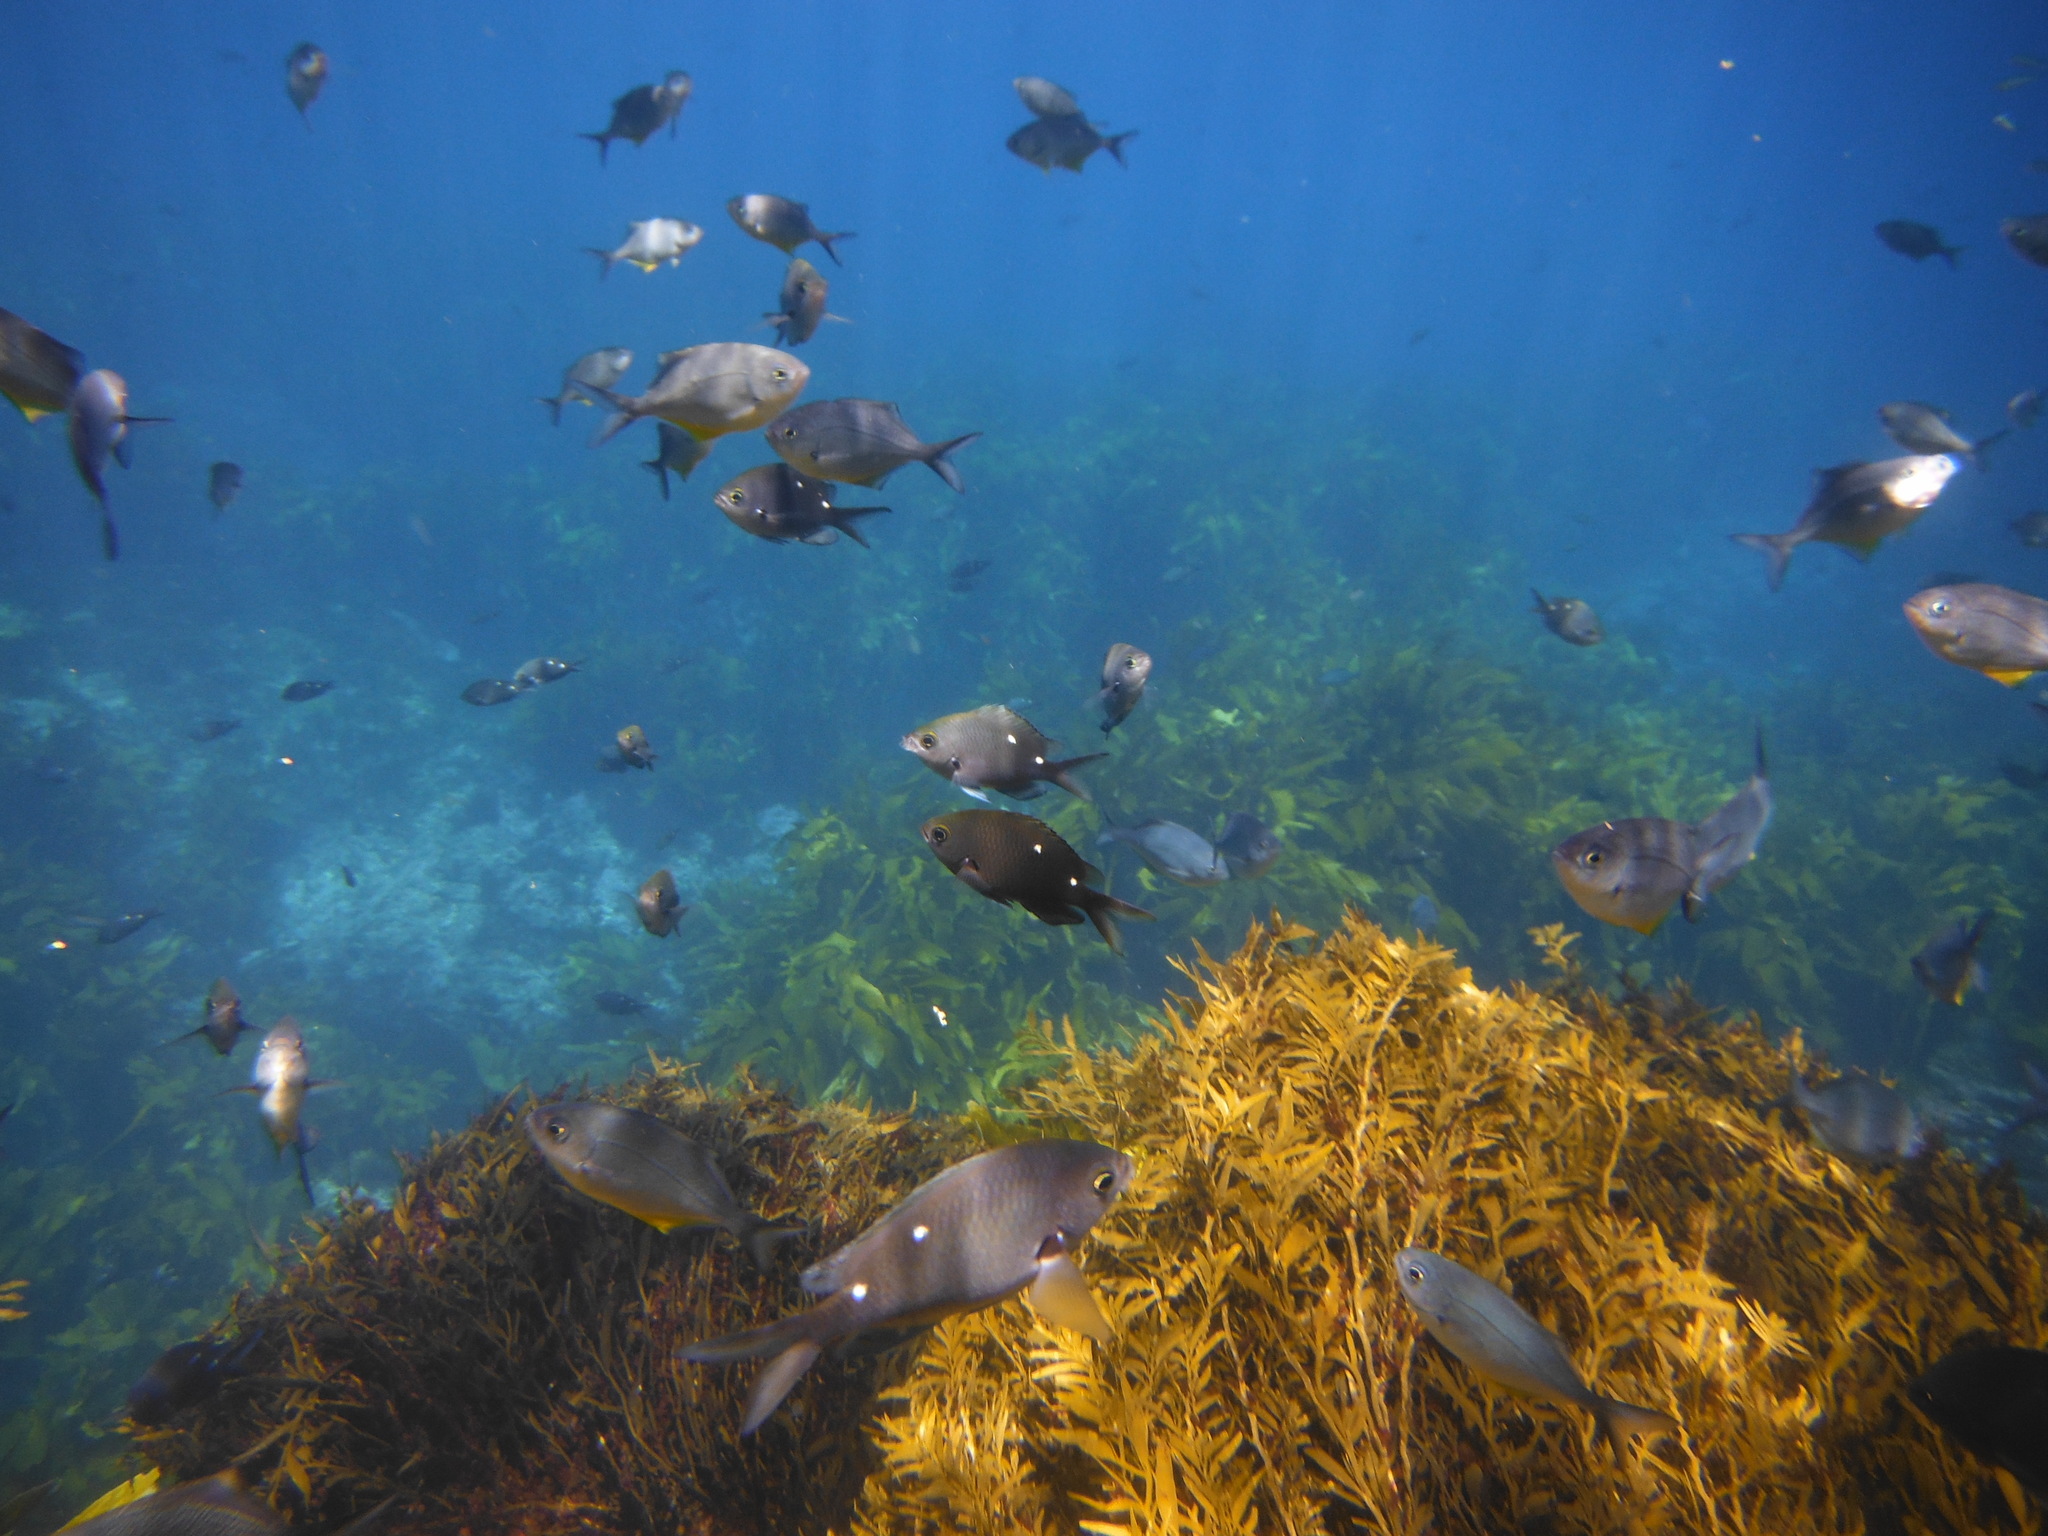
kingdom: Animalia
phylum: Chordata
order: Perciformes
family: Pomacentridae
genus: Chromis
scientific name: Chromis dispilus
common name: Demoiselle
